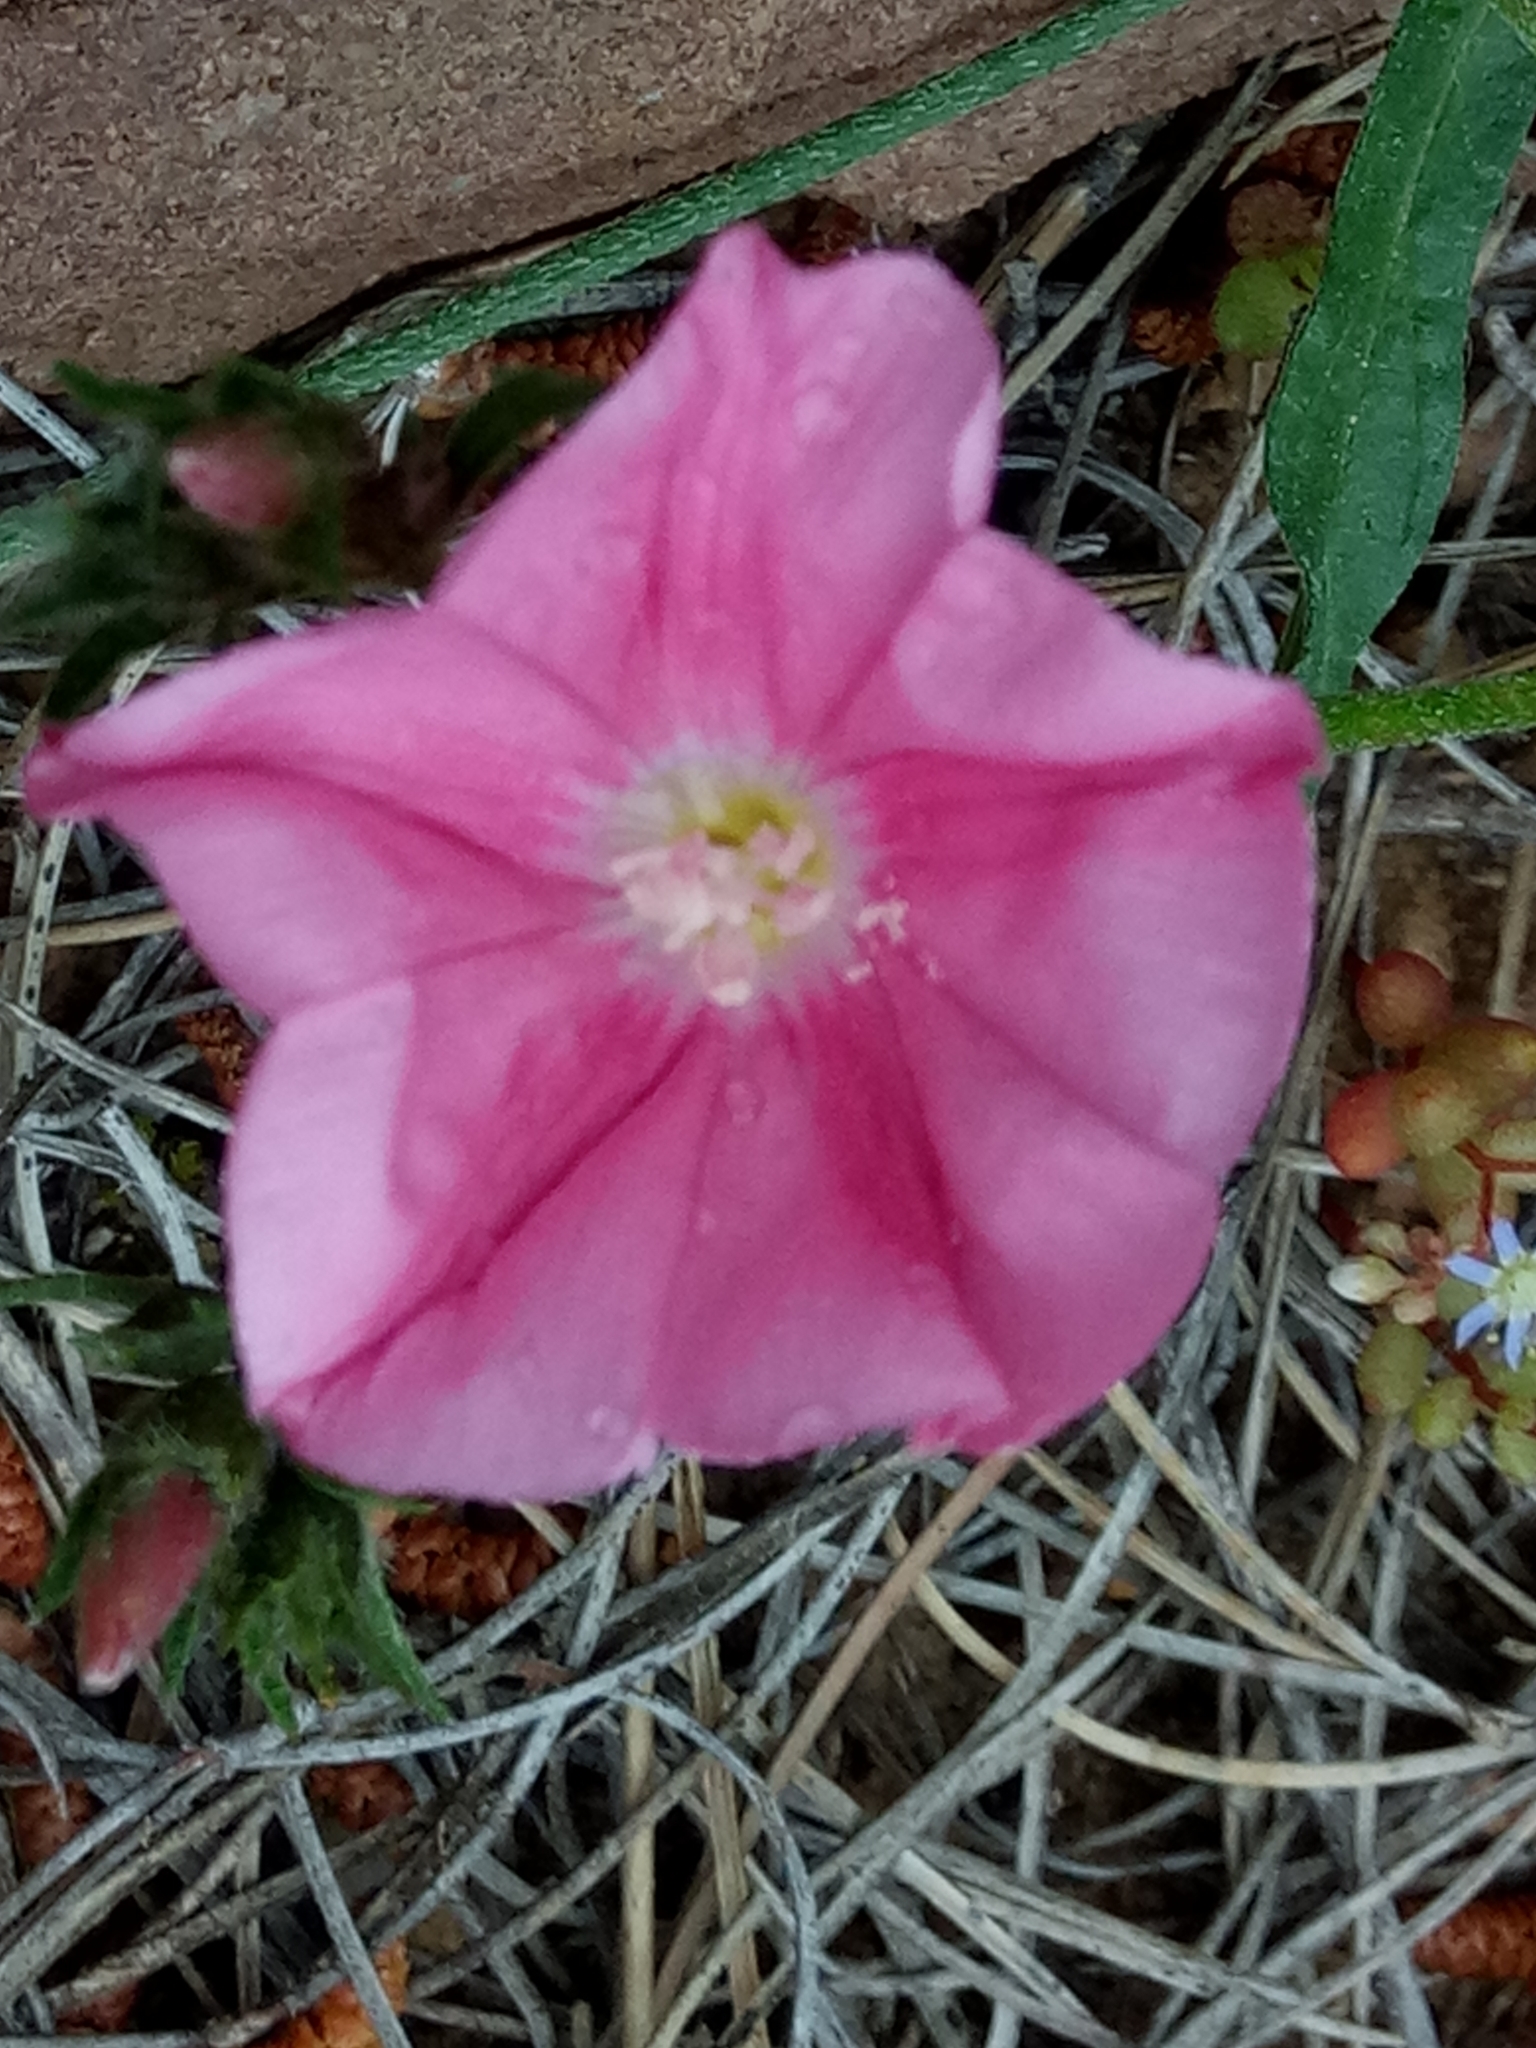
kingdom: Plantae
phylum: Tracheophyta
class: Magnoliopsida
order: Solanales
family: Convolvulaceae
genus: Convolvulus
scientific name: Convolvulus cantabrica
